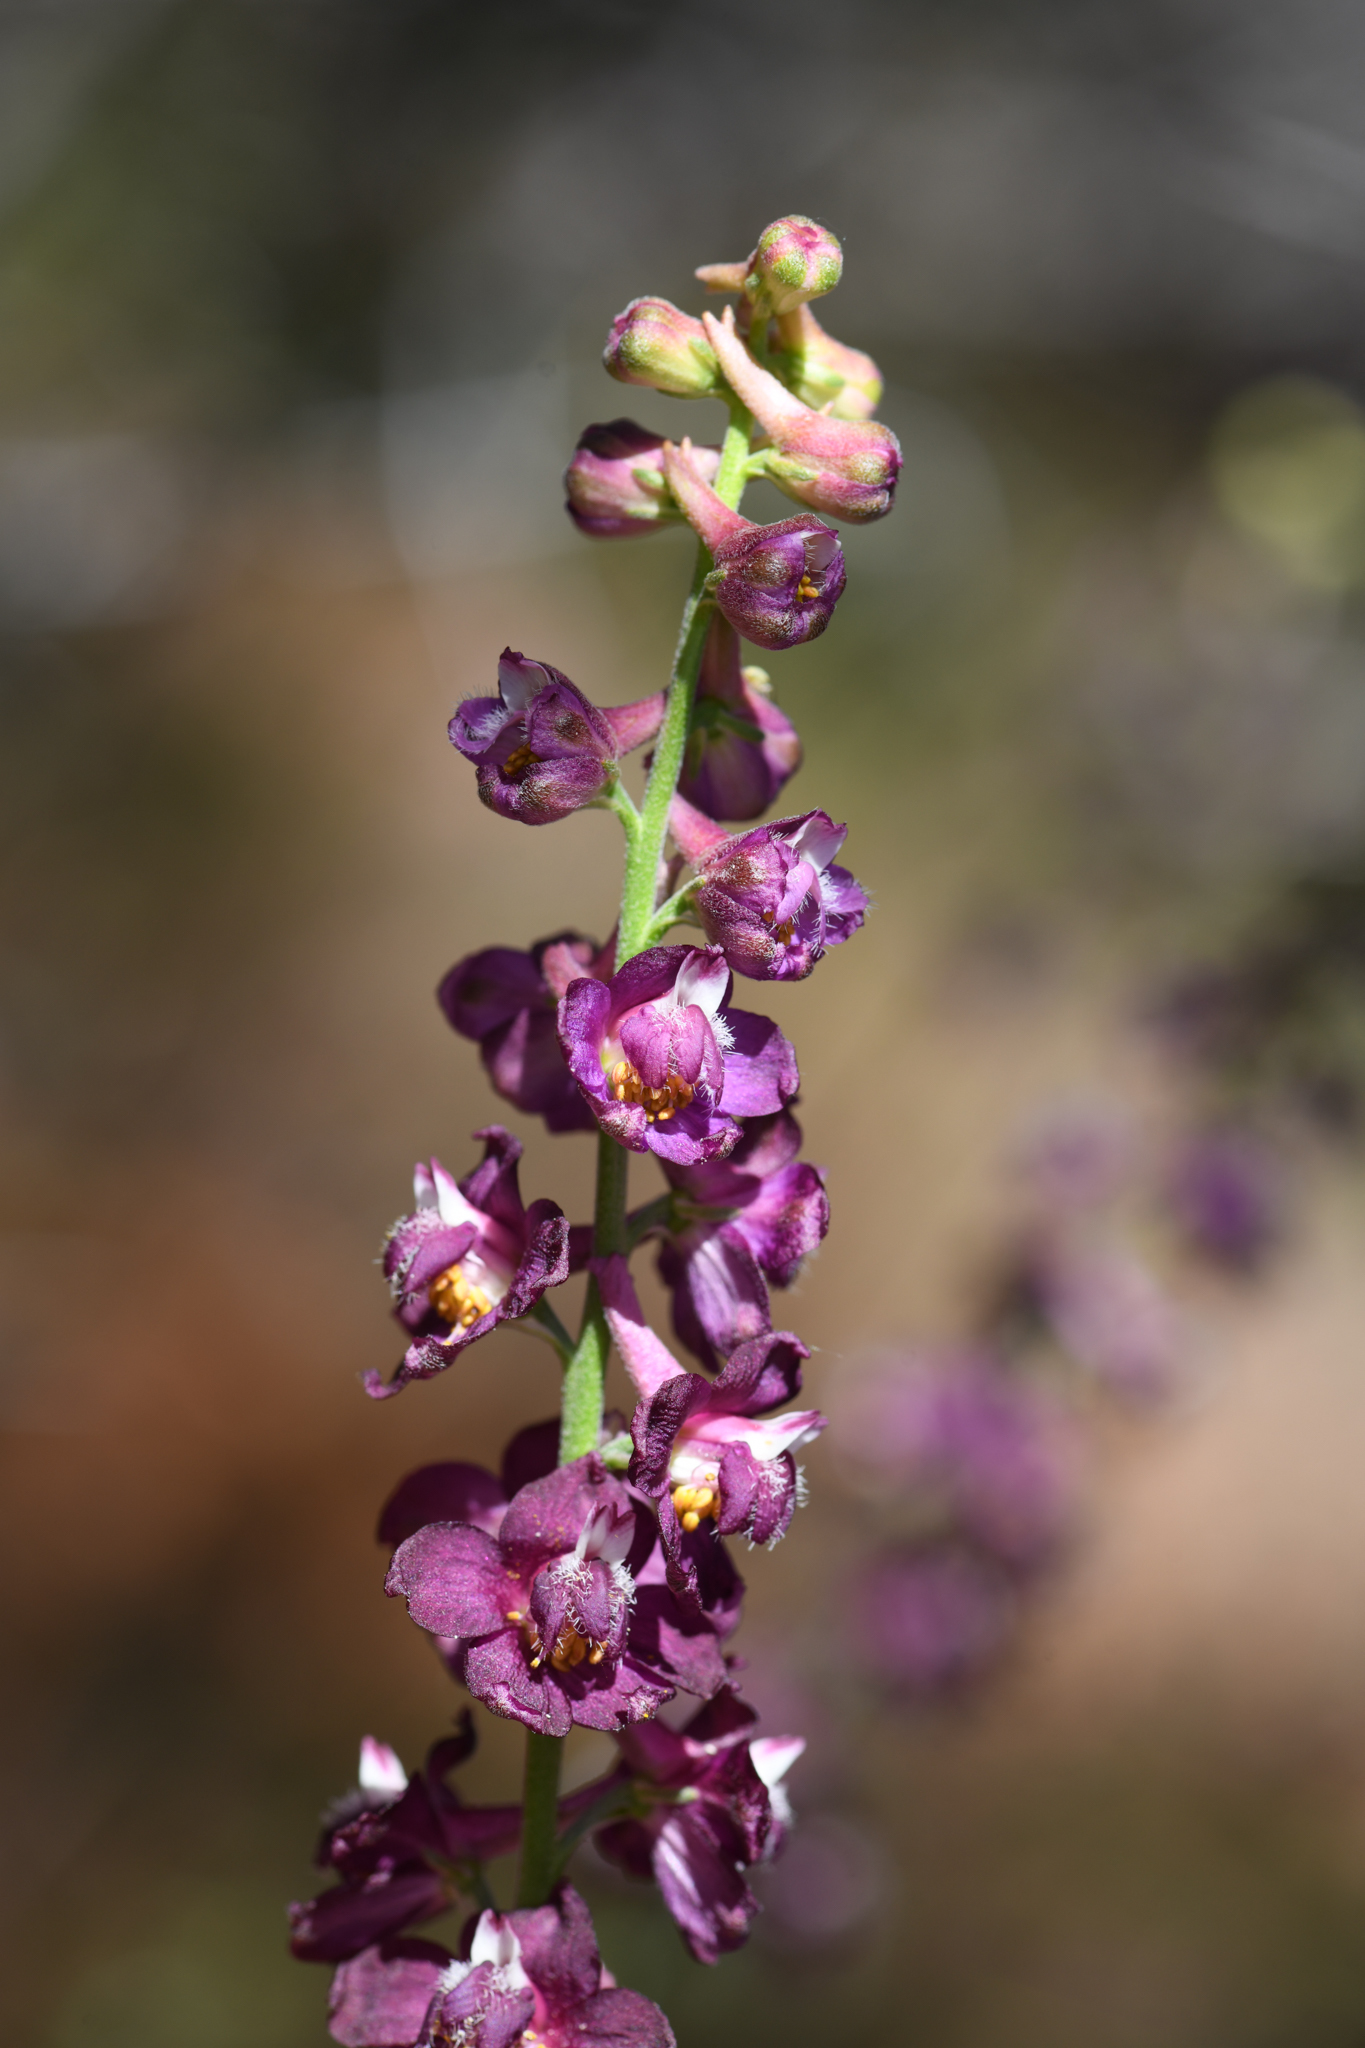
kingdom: Plantae
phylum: Tracheophyta
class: Magnoliopsida
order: Ranunculales
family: Ranunculaceae
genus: Delphinium
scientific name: Delphinium hansenii
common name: Hansen's larkspur
